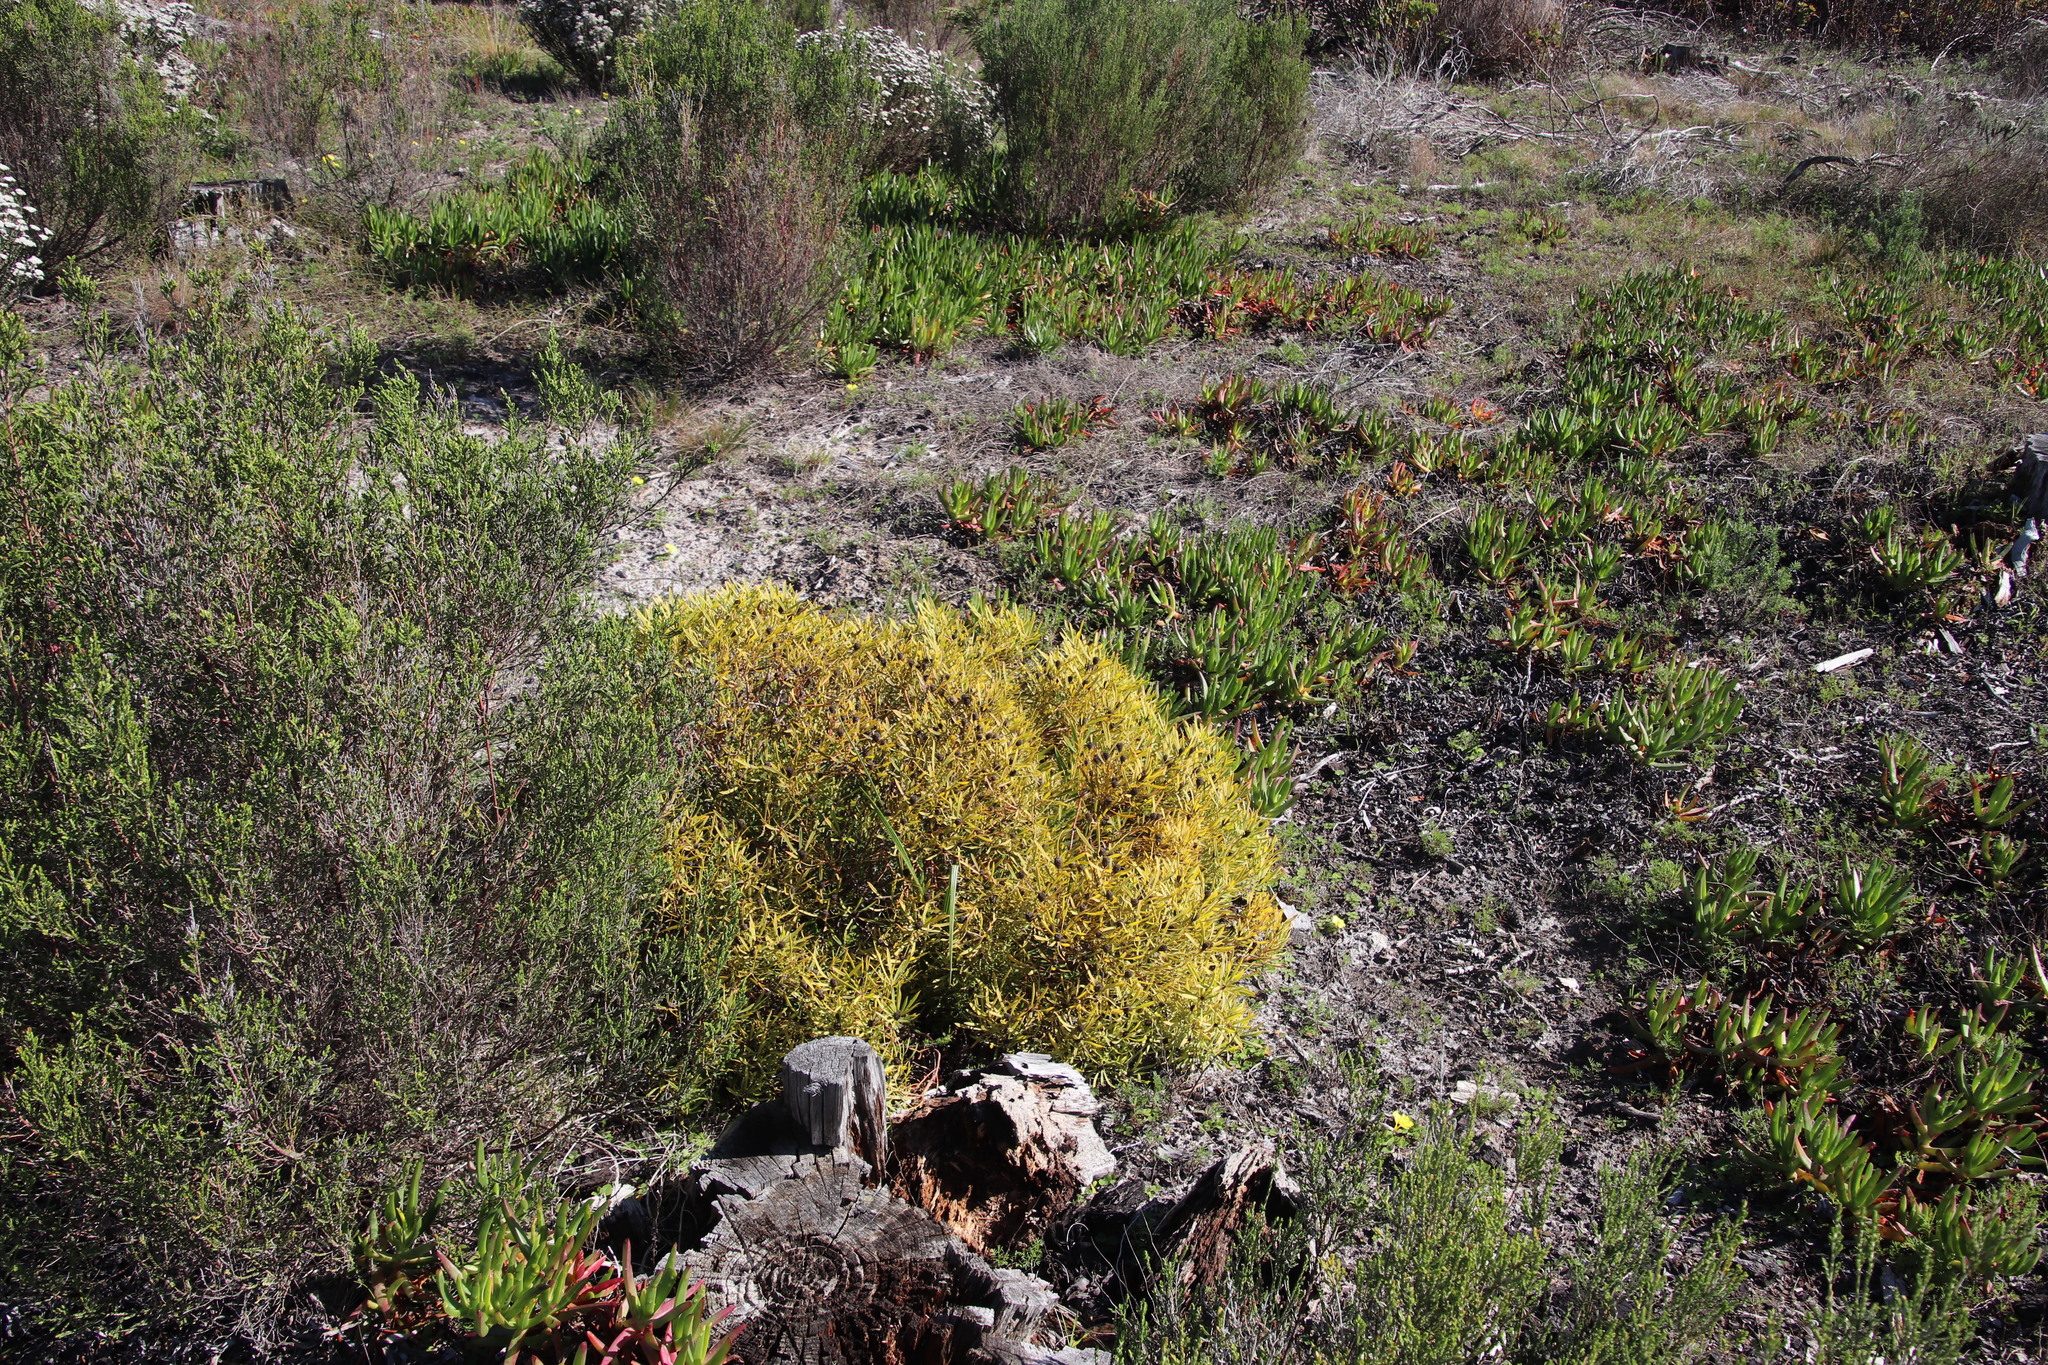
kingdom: Plantae
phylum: Tracheophyta
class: Magnoliopsida
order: Proteales
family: Proteaceae
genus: Leucadendron
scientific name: Leucadendron salignum
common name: Common sunshine conebush
